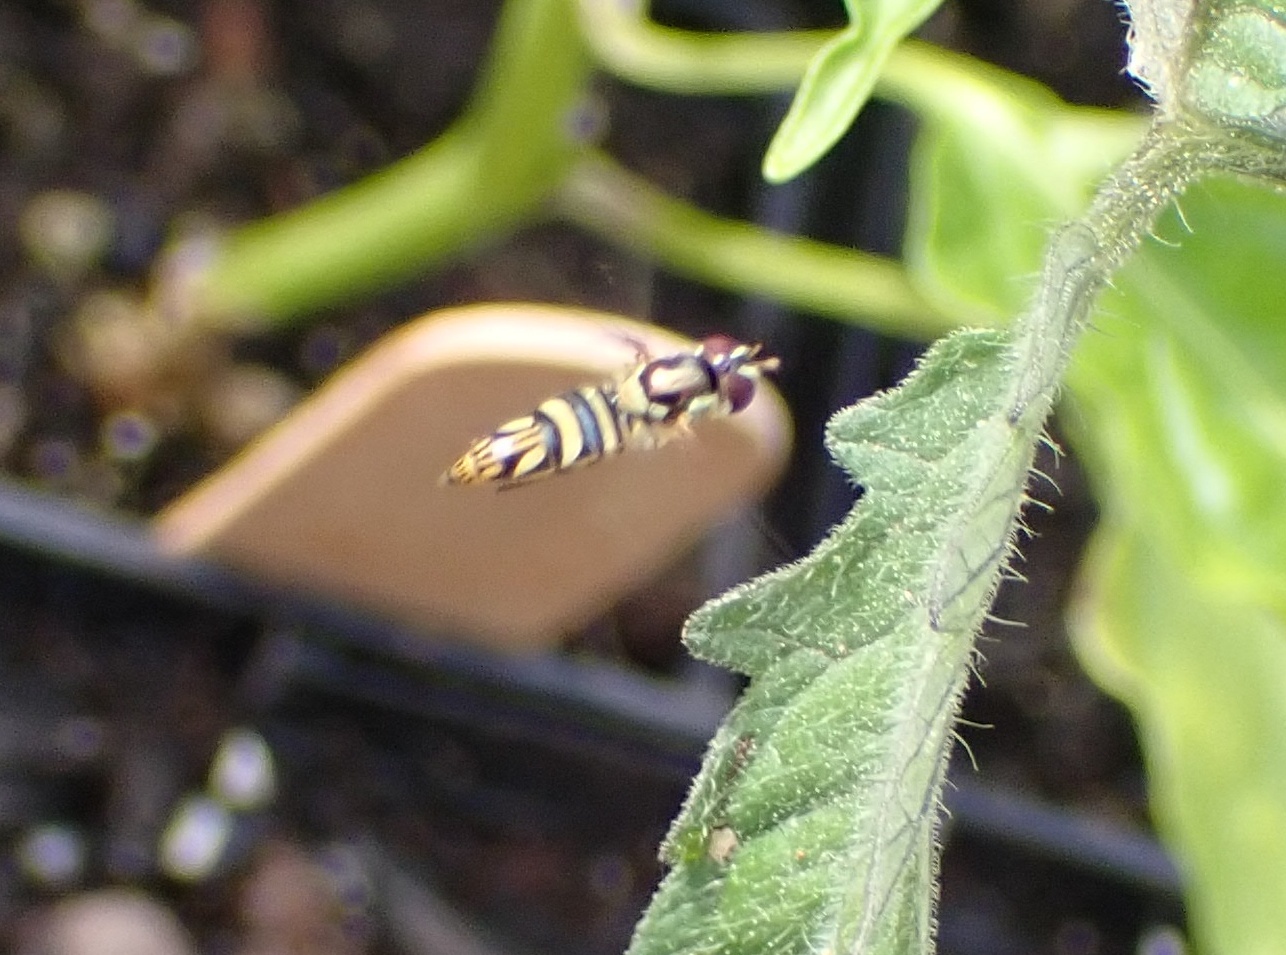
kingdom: Animalia
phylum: Arthropoda
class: Insecta
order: Diptera
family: Syrphidae
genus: Allograpta
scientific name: Allograpta obliqua
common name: Common oblique syrphid
